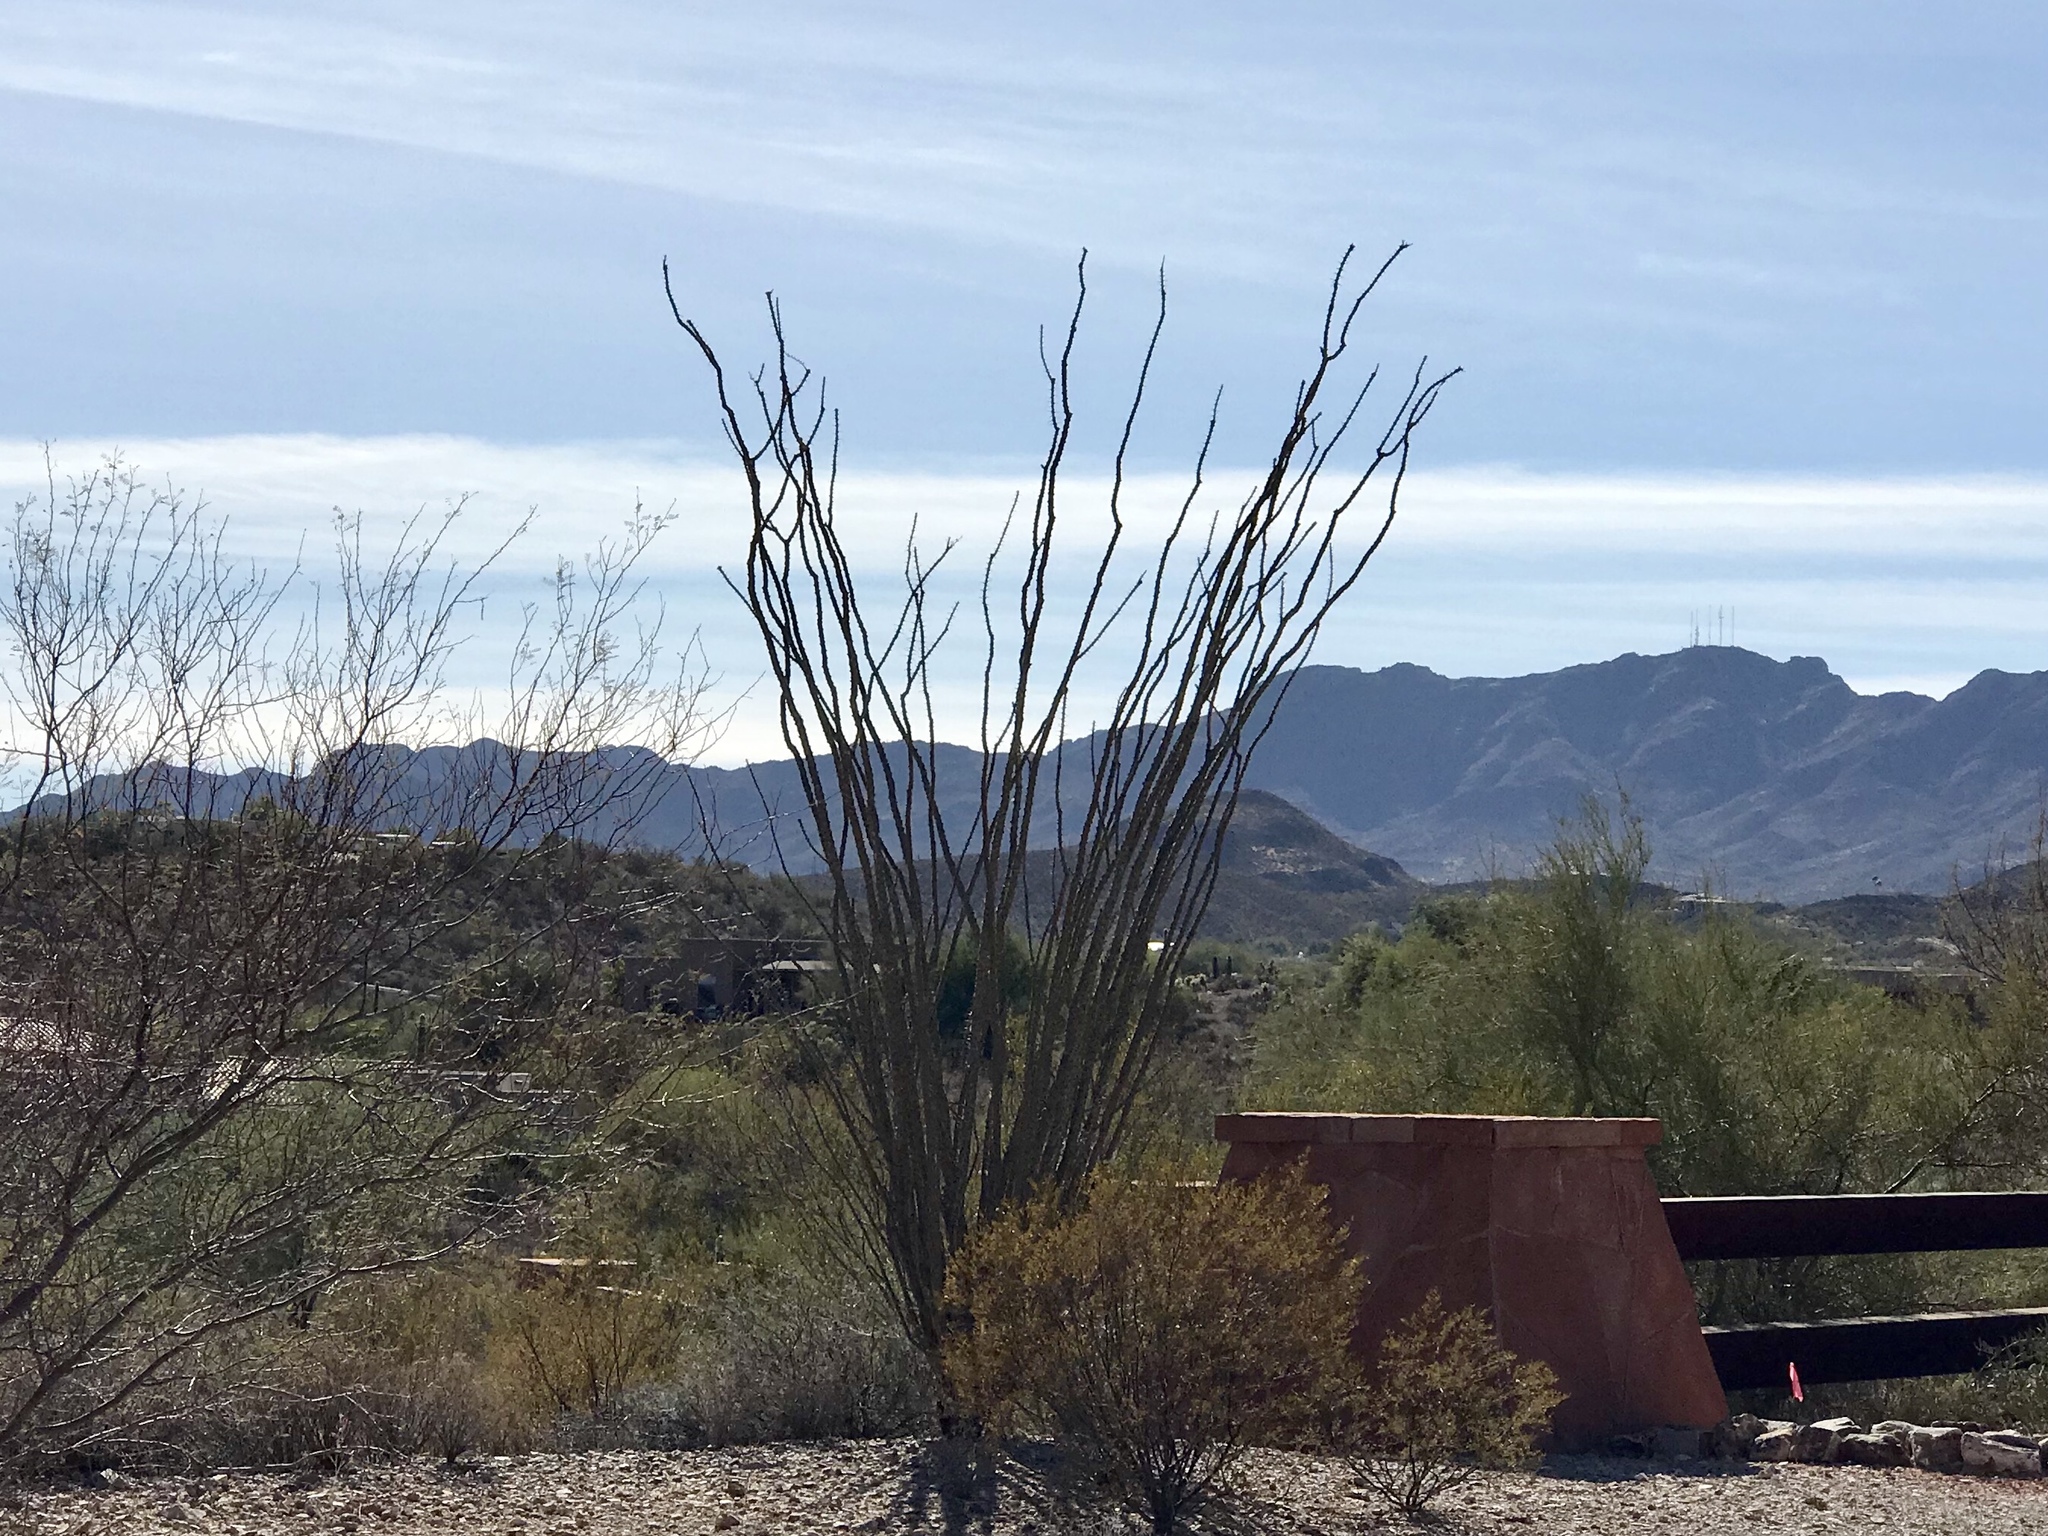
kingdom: Plantae
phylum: Tracheophyta
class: Magnoliopsida
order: Ericales
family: Fouquieriaceae
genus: Fouquieria
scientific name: Fouquieria splendens
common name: Vine-cactus
